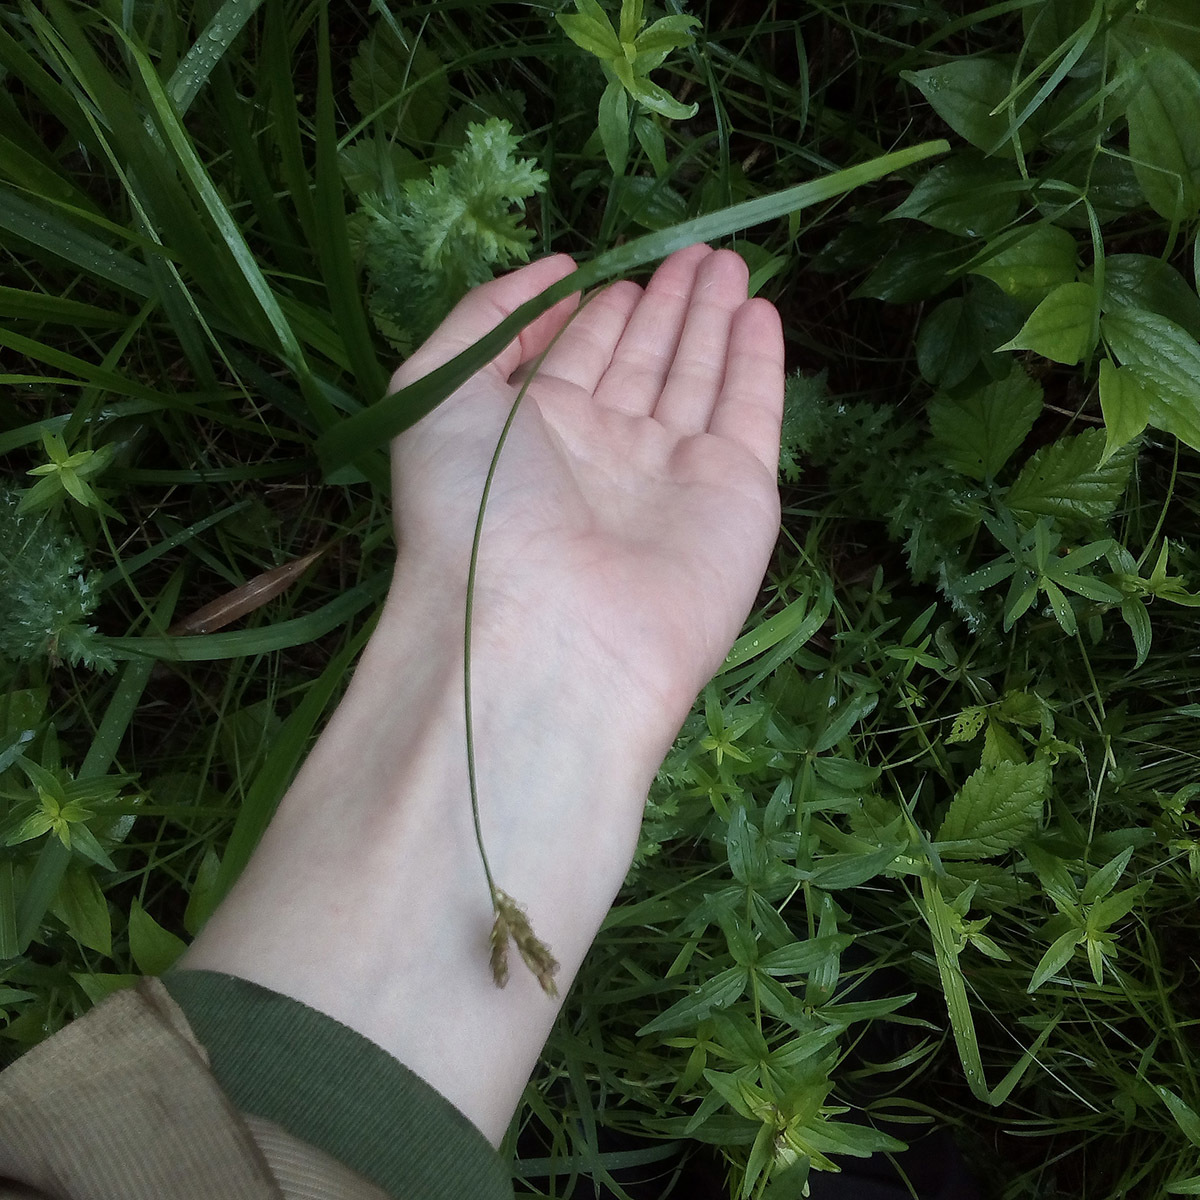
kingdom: Plantae
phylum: Tracheophyta
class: Liliopsida
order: Poales
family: Cyperaceae
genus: Carex
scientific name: Carex praecox
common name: Early sedge
